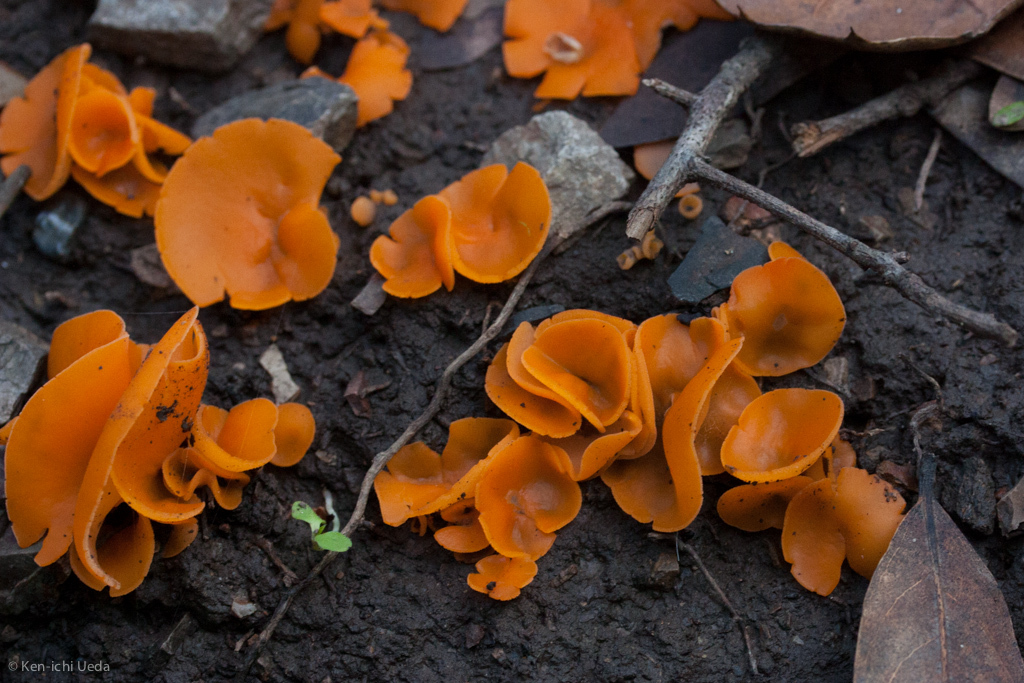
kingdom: Fungi
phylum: Ascomycota
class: Pezizomycetes
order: Pezizales
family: Pyronemataceae
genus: Aleuria
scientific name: Aleuria aurantia
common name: Orange peel fungus
